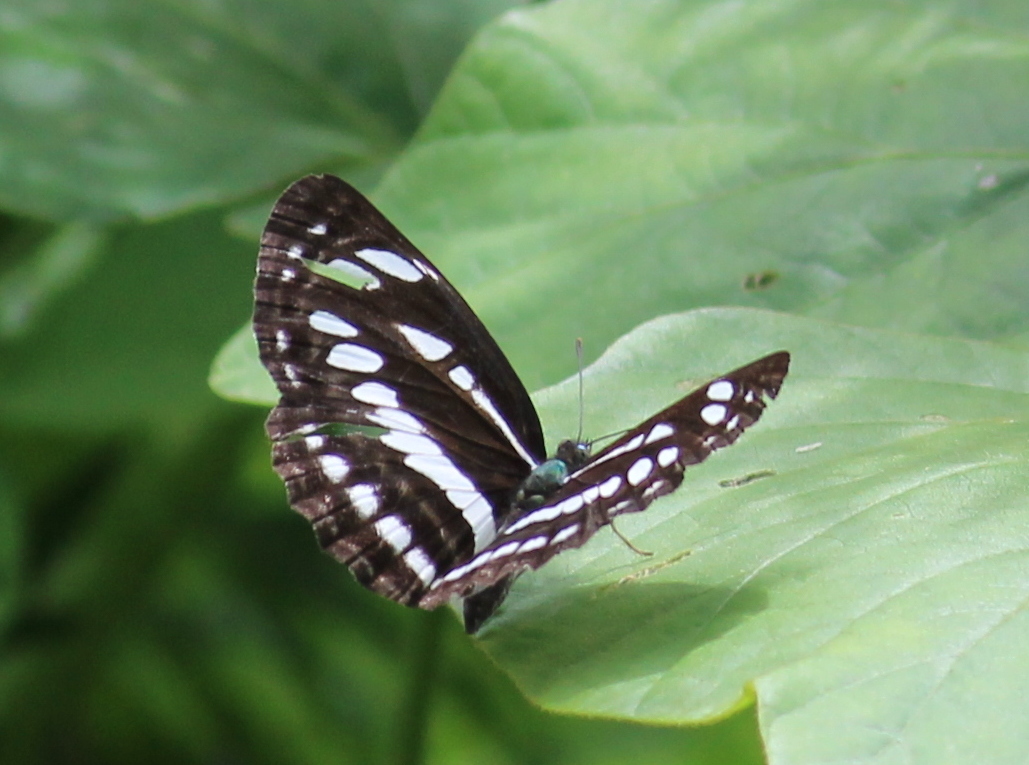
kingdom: Animalia
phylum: Arthropoda
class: Insecta
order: Lepidoptera
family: Nymphalidae
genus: Neptis
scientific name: Neptis hylas
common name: Common sailer
